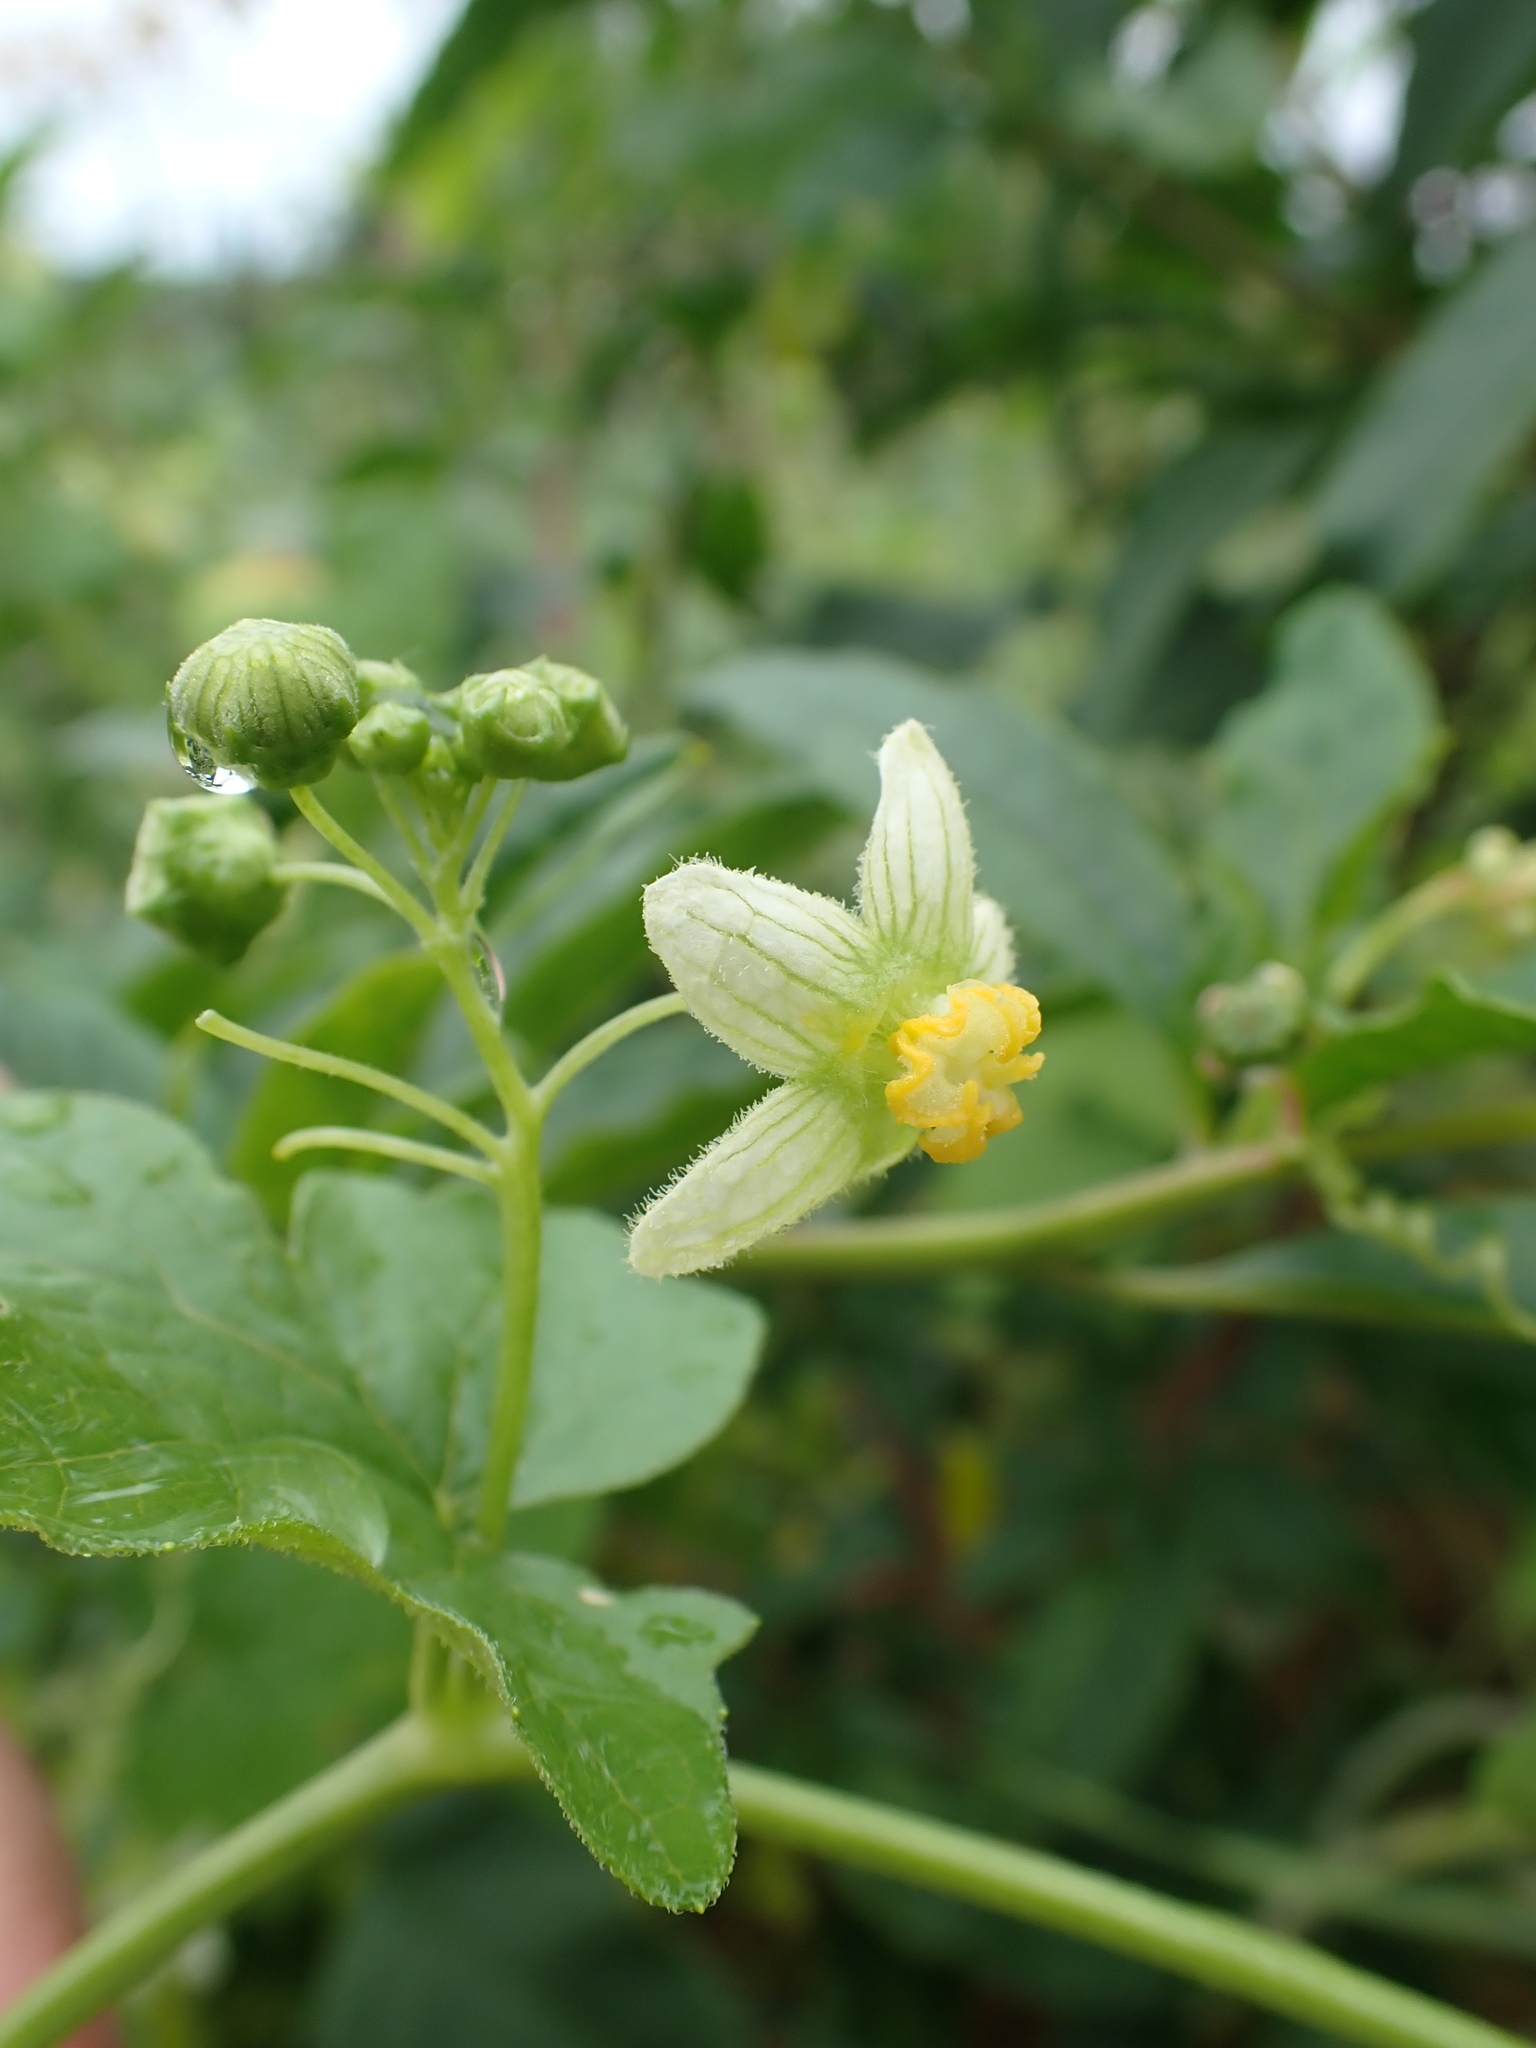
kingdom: Plantae
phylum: Tracheophyta
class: Magnoliopsida
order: Cucurbitales
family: Cucurbitaceae
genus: Bryonia
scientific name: Bryonia cretica
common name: Cretan bryony
